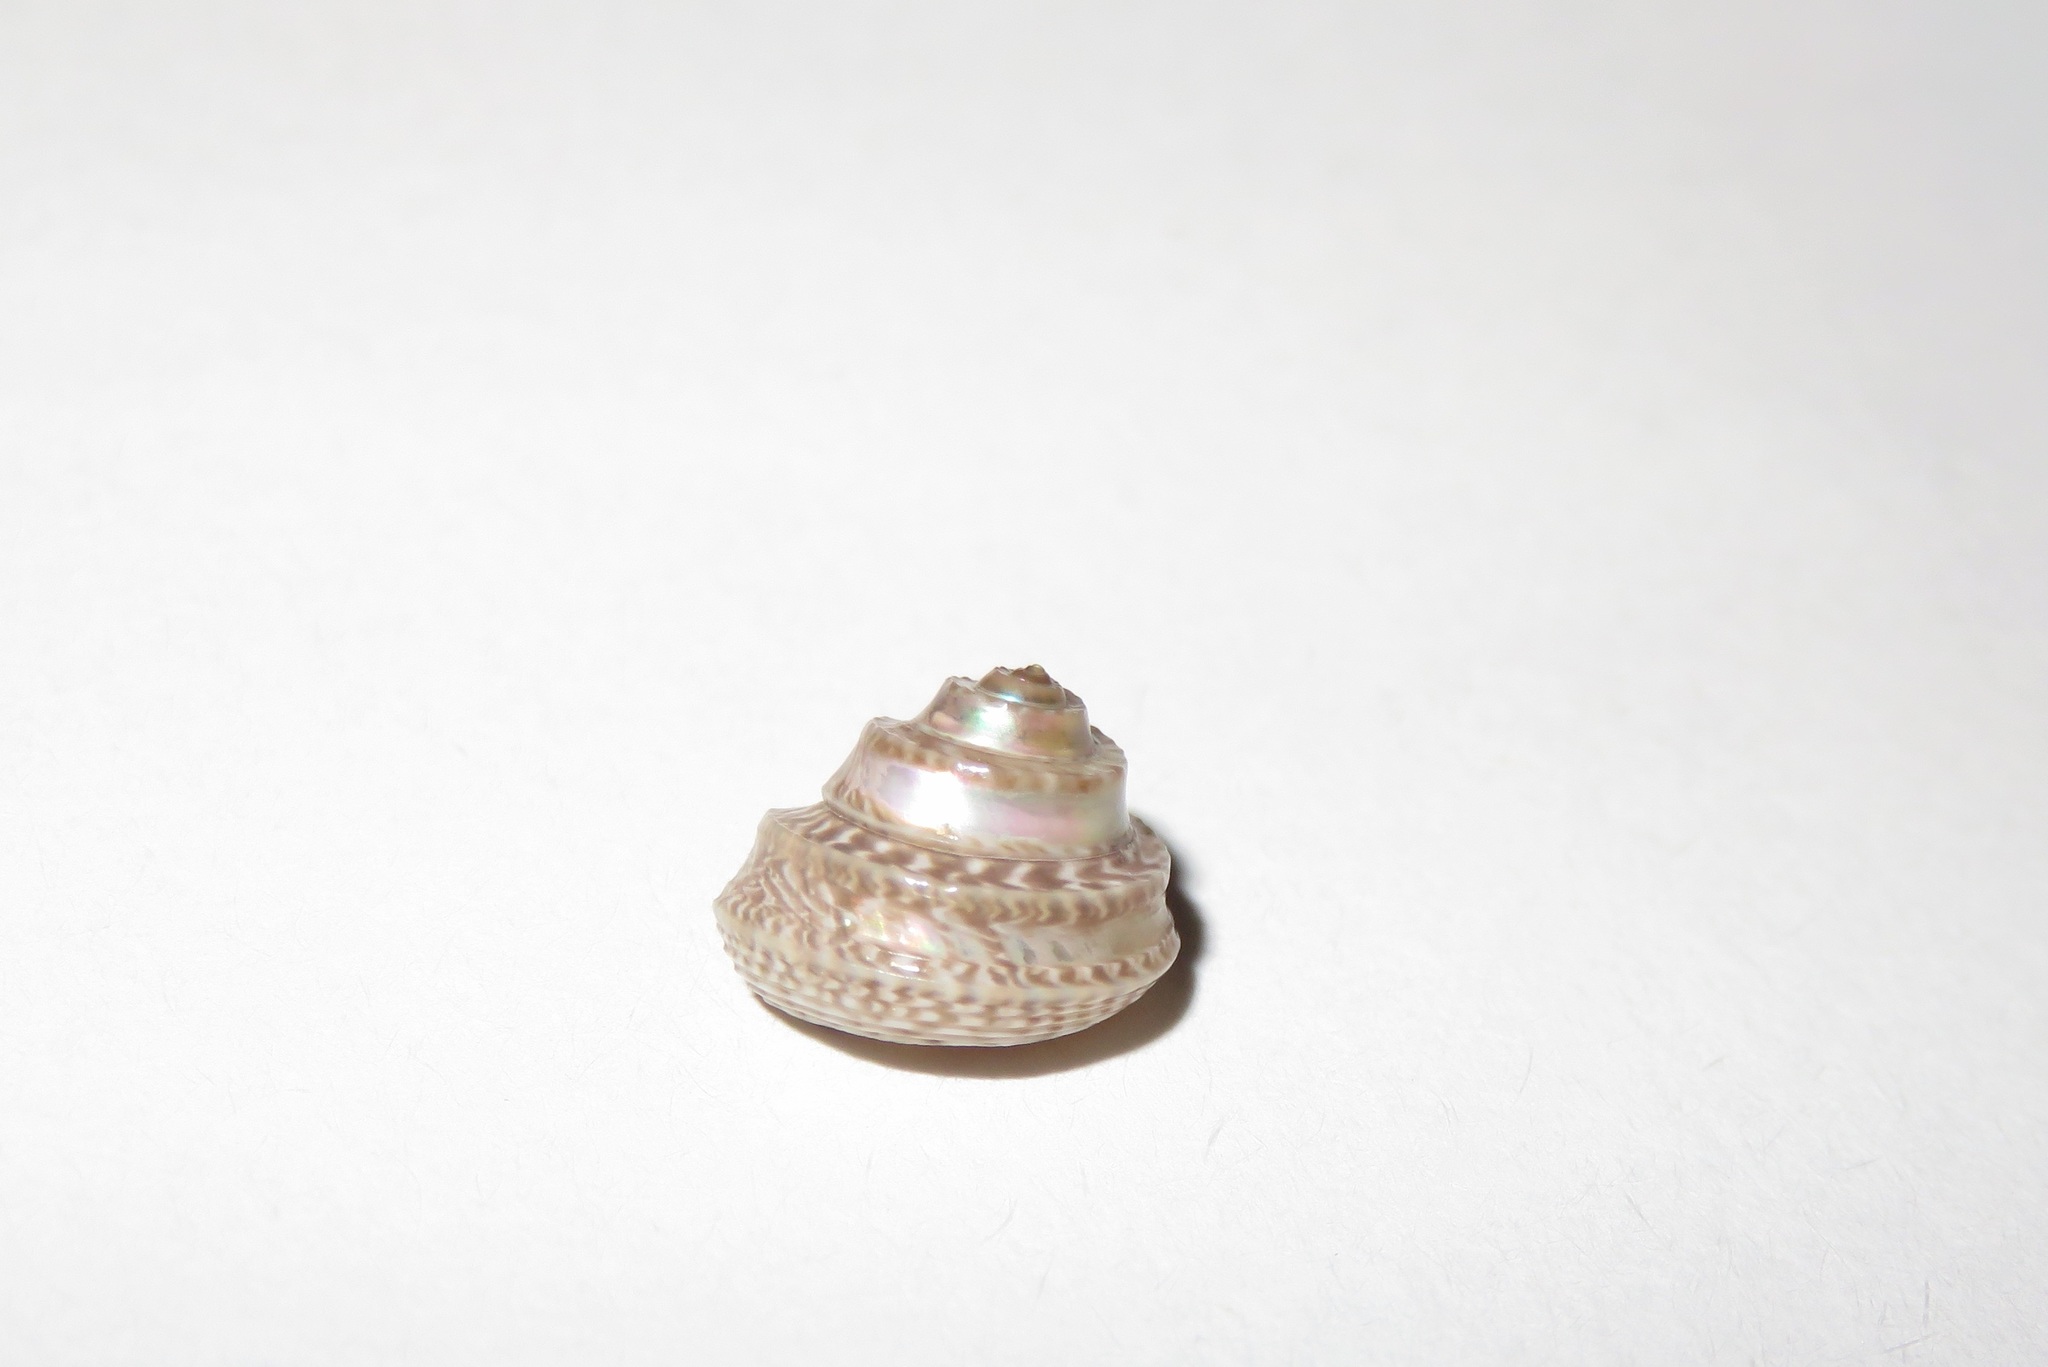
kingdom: Animalia
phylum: Mollusca
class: Gastropoda
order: Trochida
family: Trochidae
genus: Conotalopia
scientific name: Conotalopia ornata
